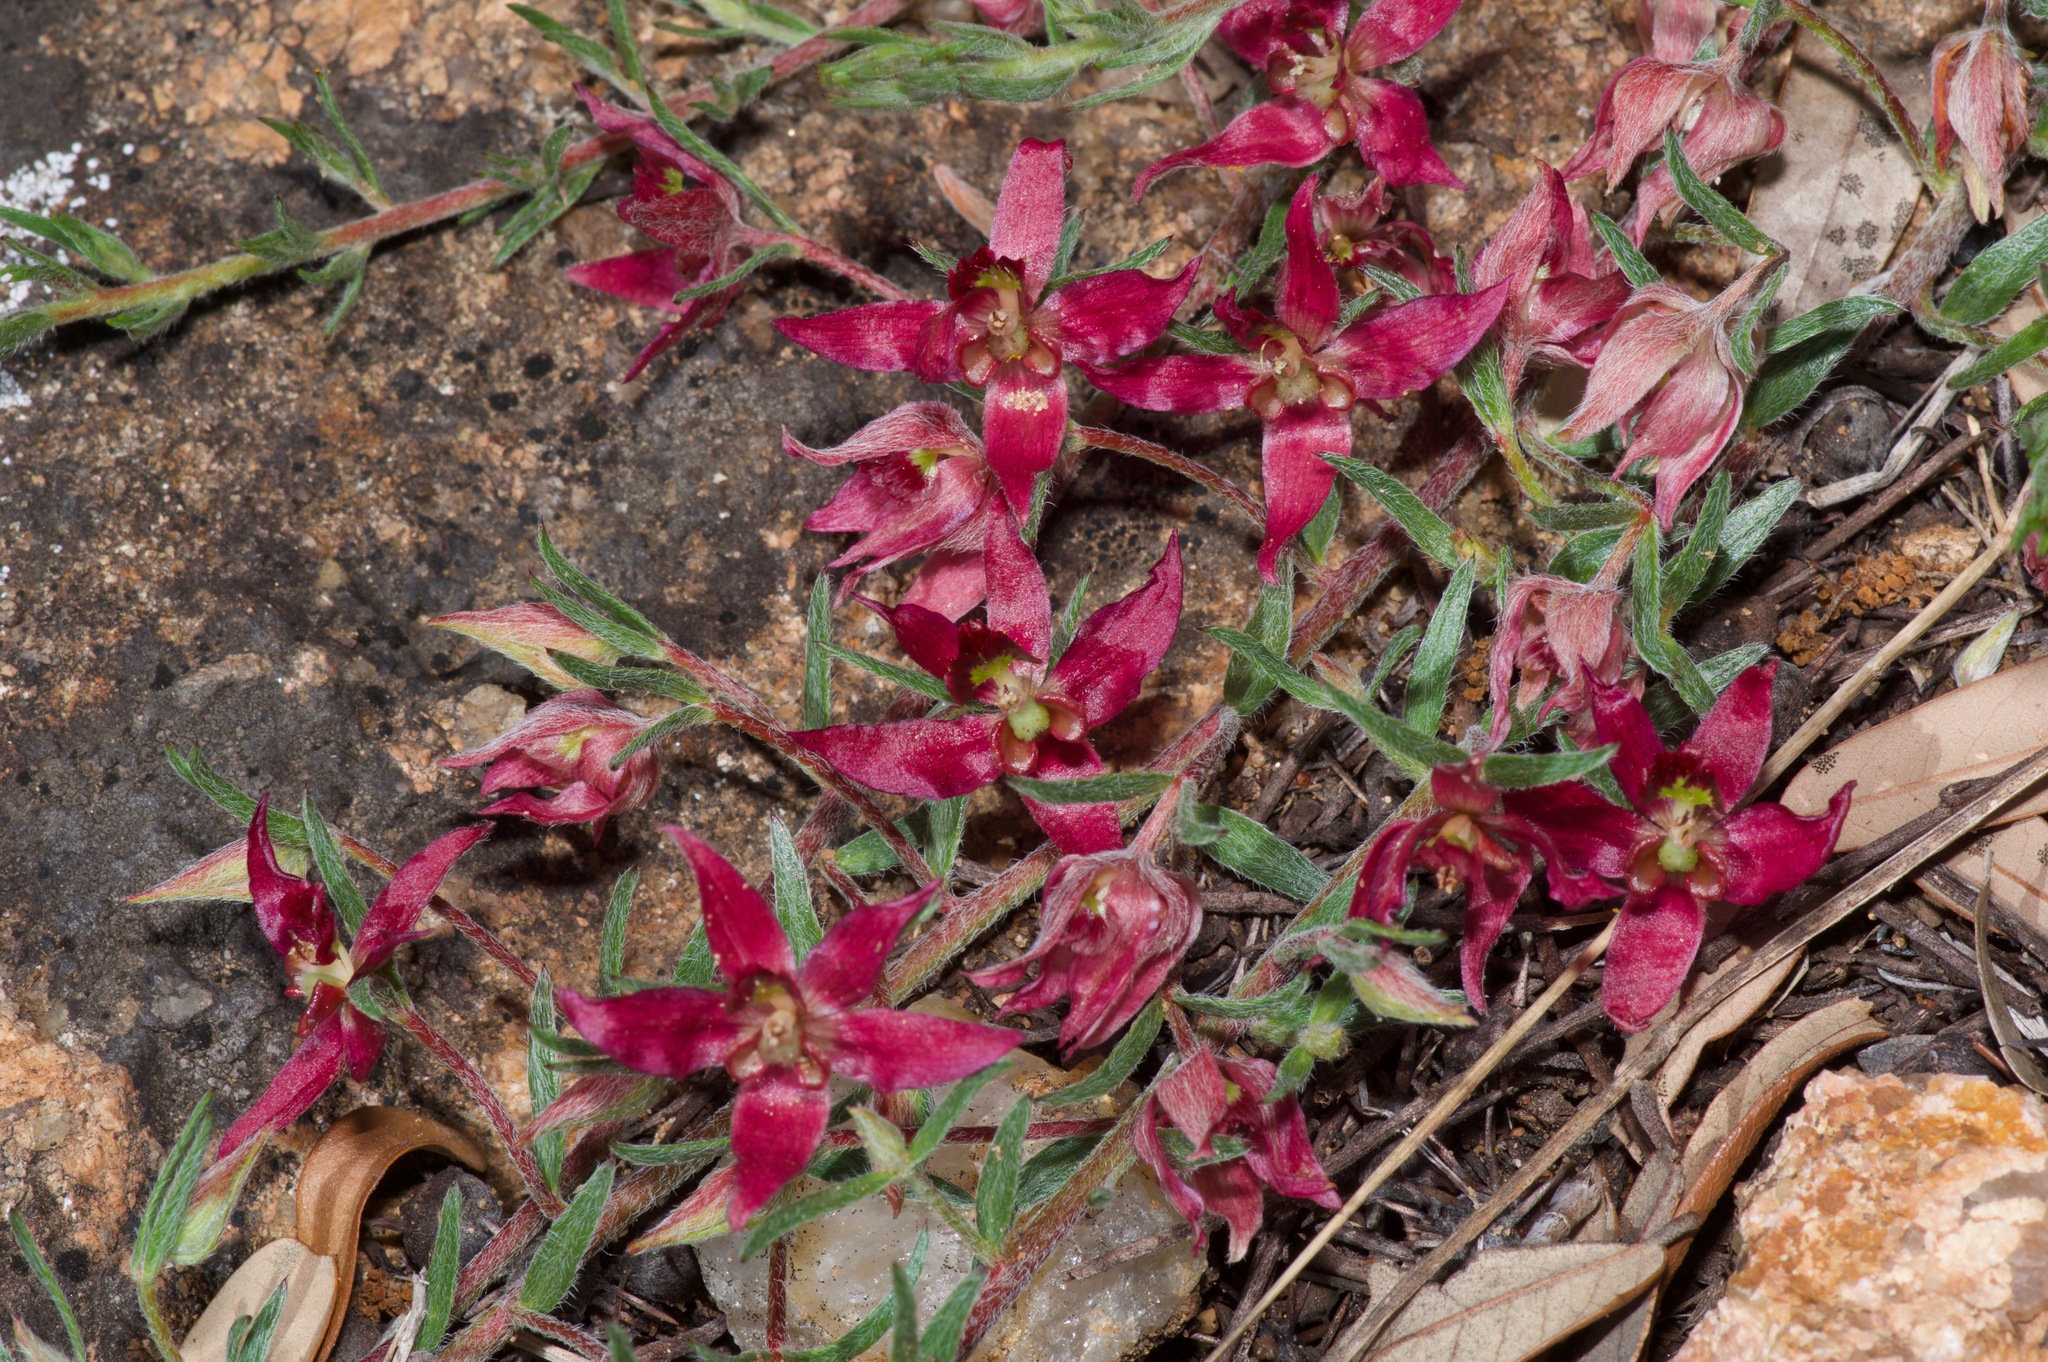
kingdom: Plantae
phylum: Tracheophyta
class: Magnoliopsida
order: Zygophyllales
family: Krameriaceae
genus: Krameria
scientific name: Krameria lanceolata
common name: Ratany
